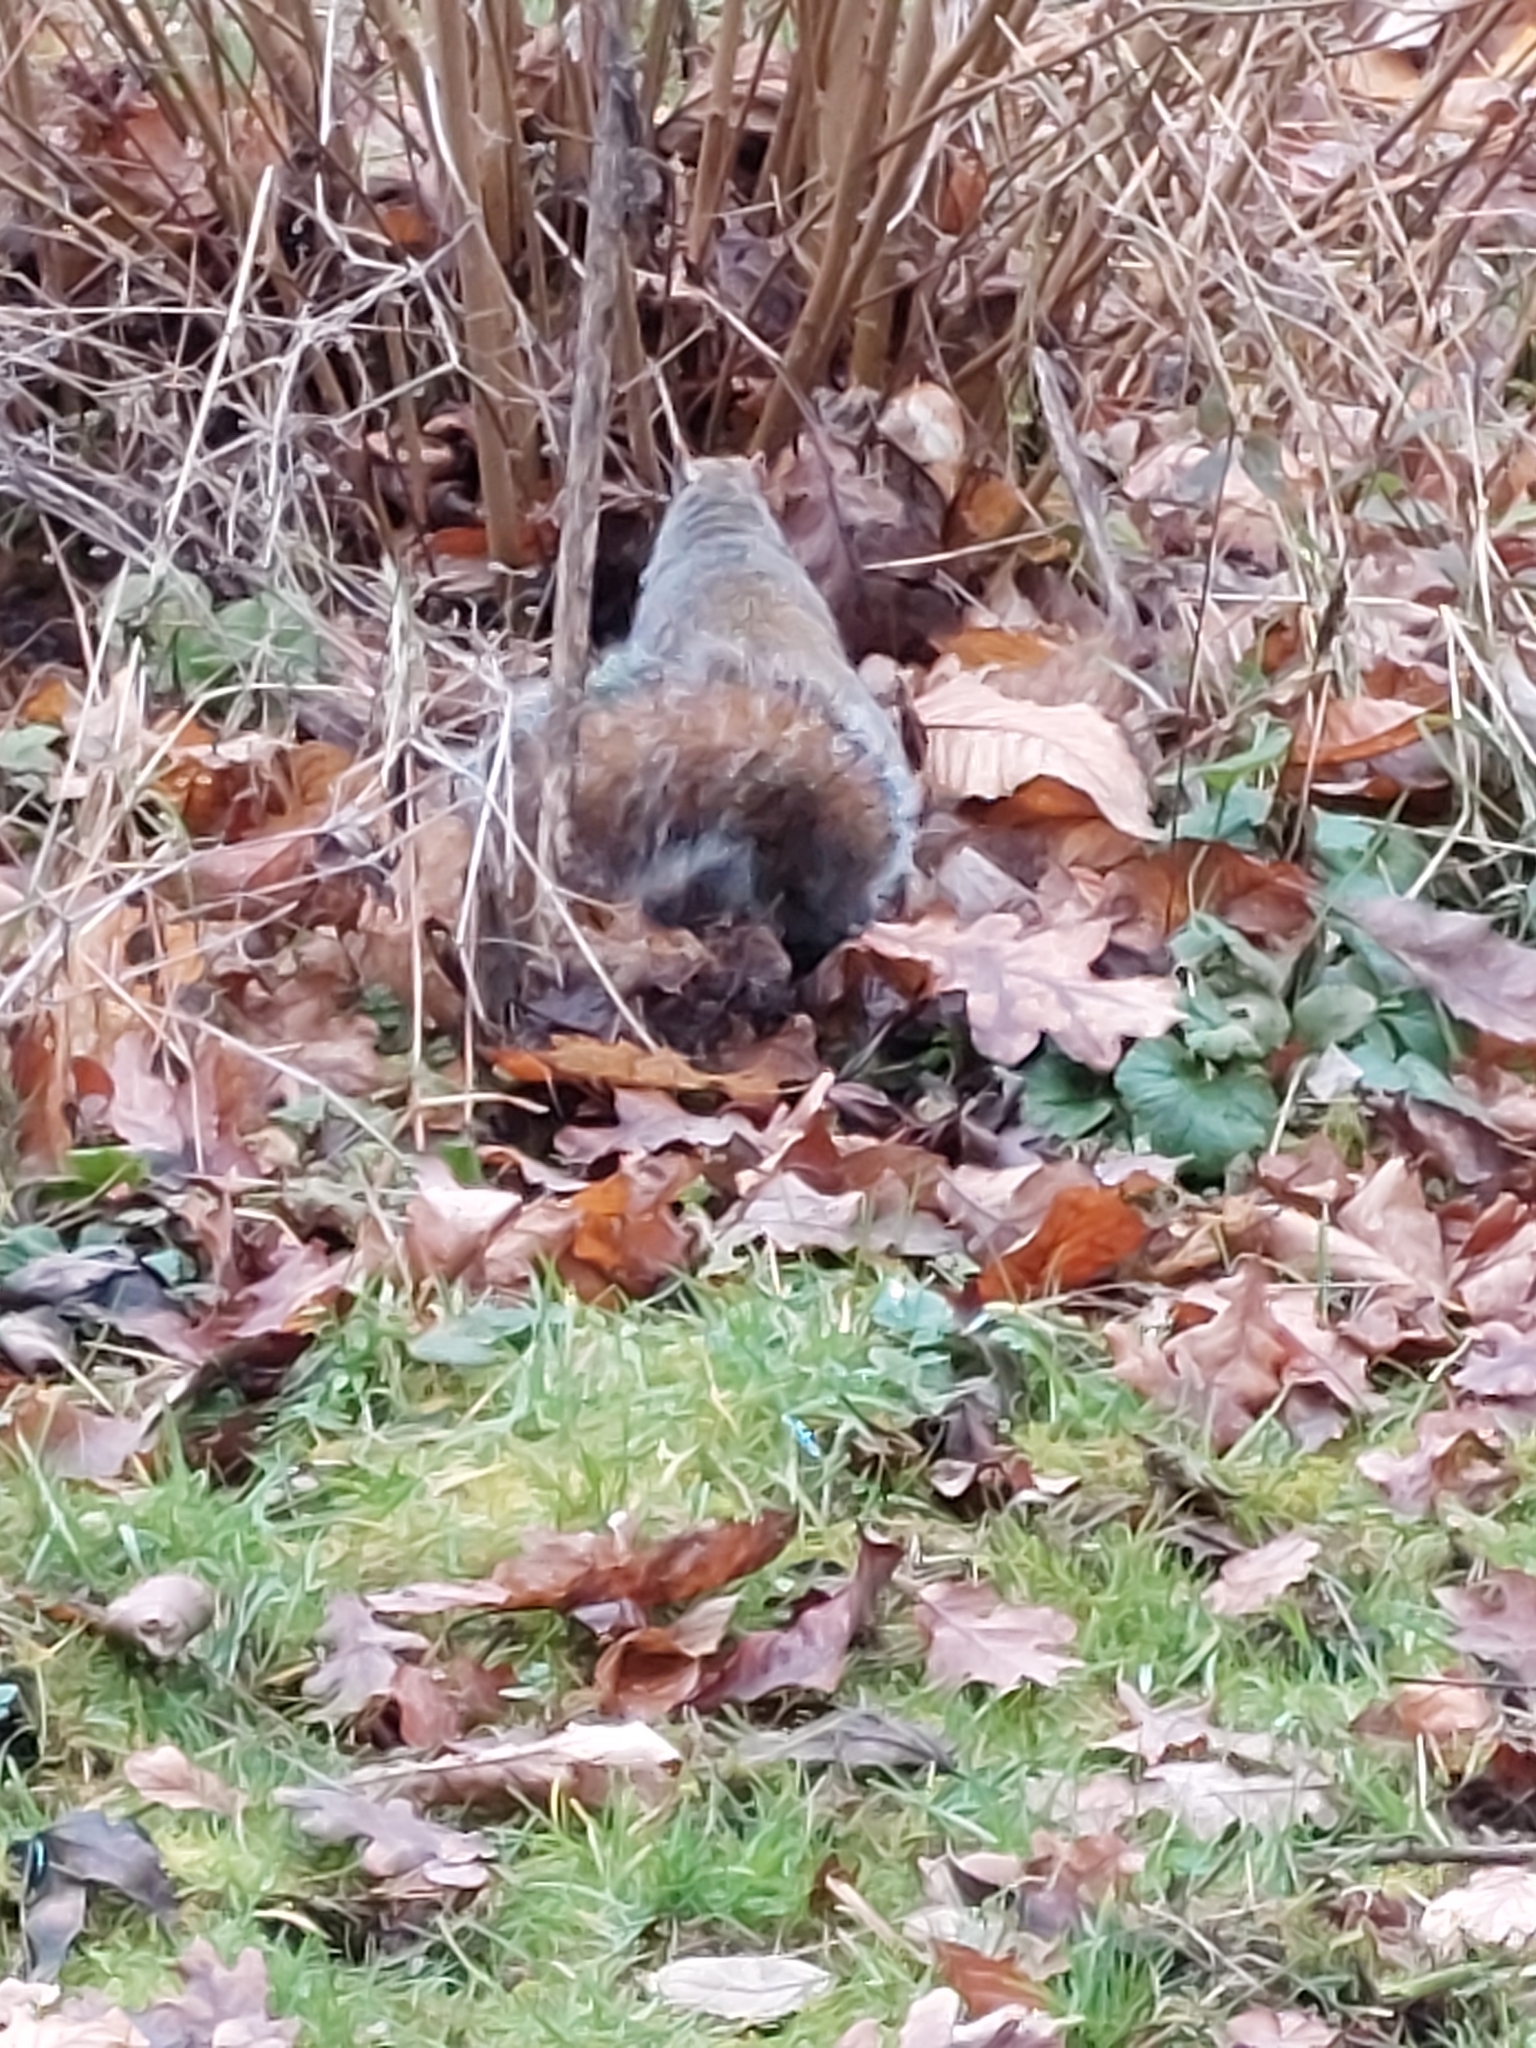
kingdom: Animalia
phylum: Chordata
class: Mammalia
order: Rodentia
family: Sciuridae
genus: Sciurus
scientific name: Sciurus carolinensis
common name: Eastern gray squirrel
